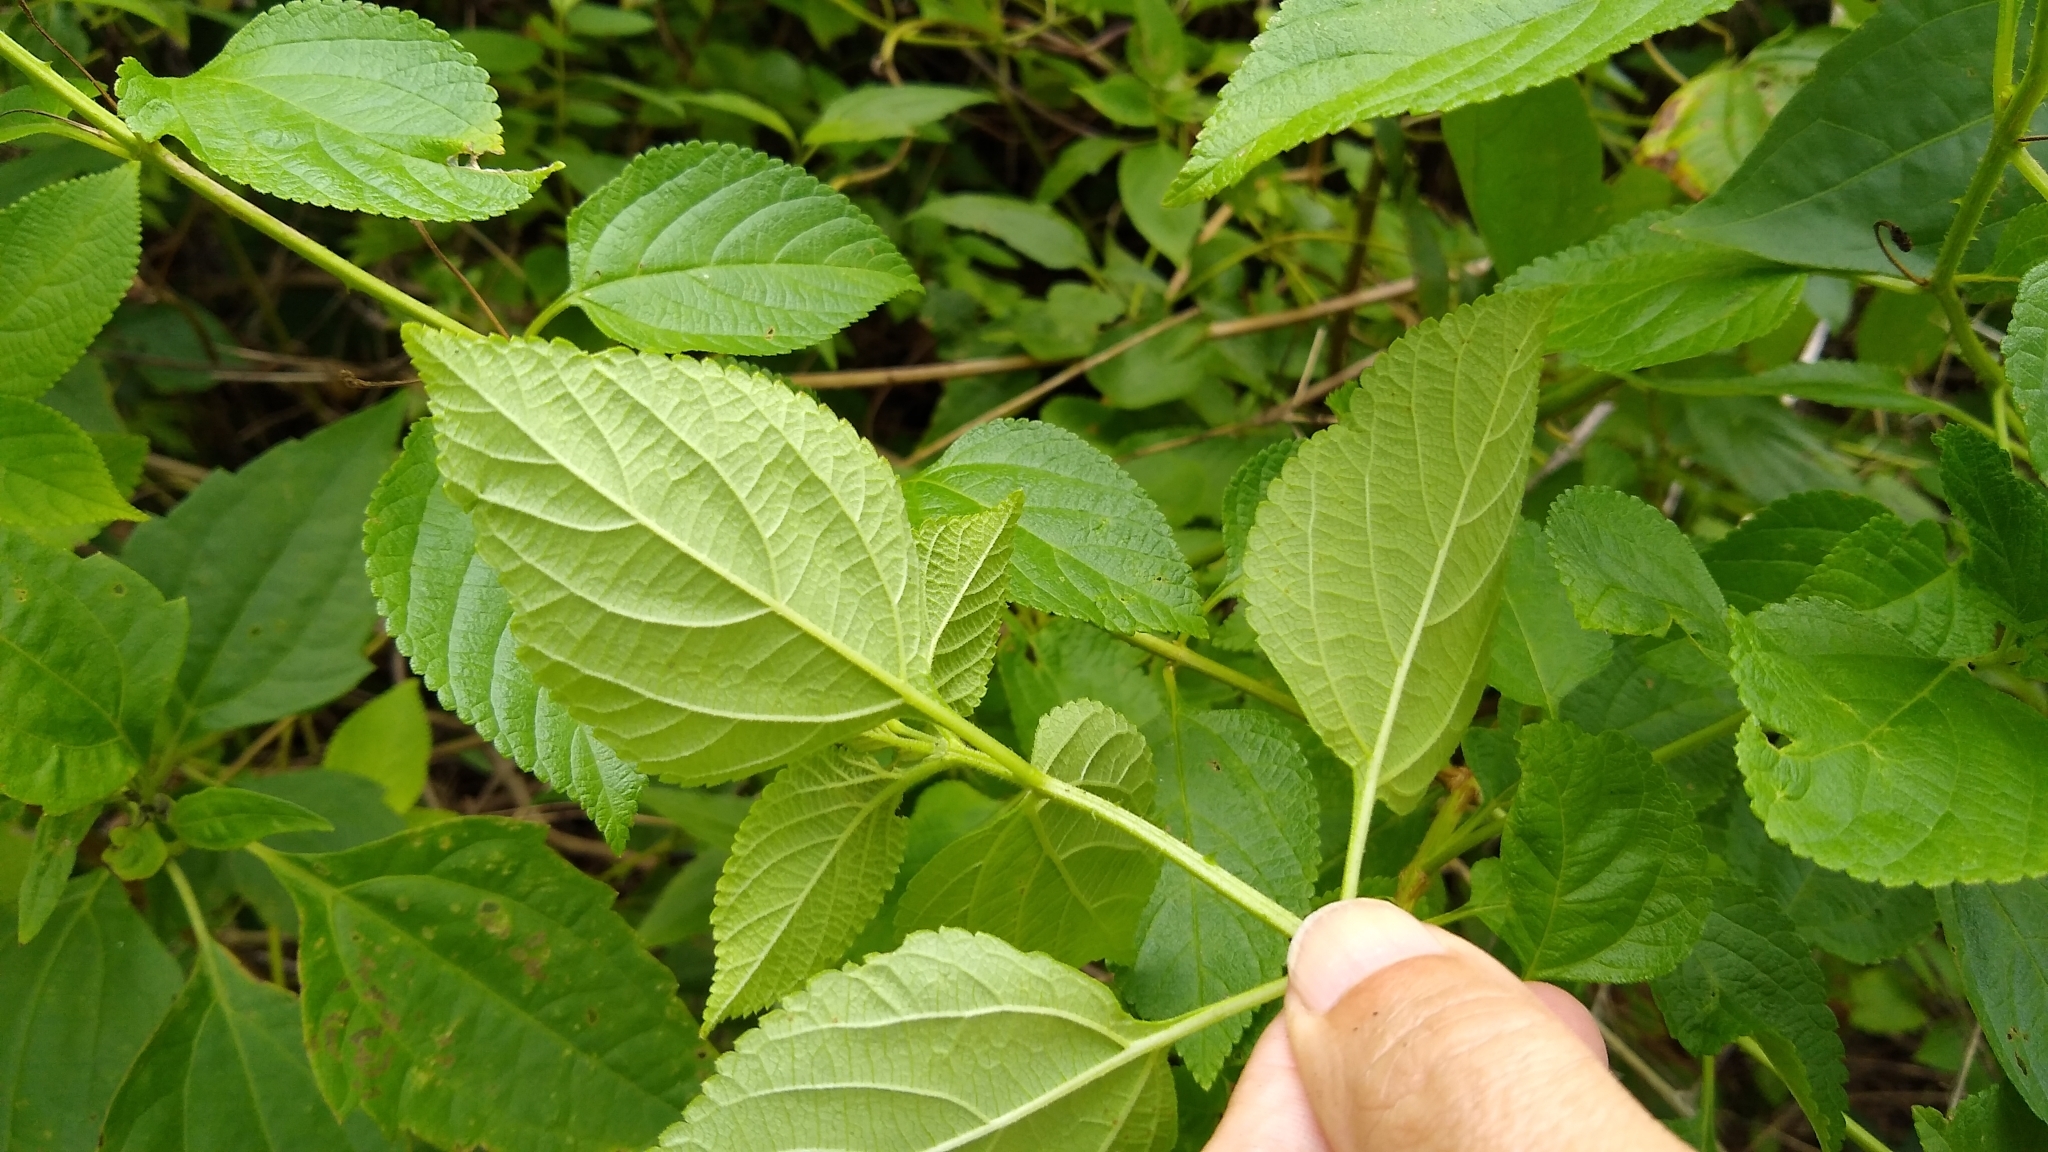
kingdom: Plantae
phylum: Tracheophyta
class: Magnoliopsida
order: Lamiales
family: Verbenaceae
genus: Lantana
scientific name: Lantana camara
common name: Lantana
